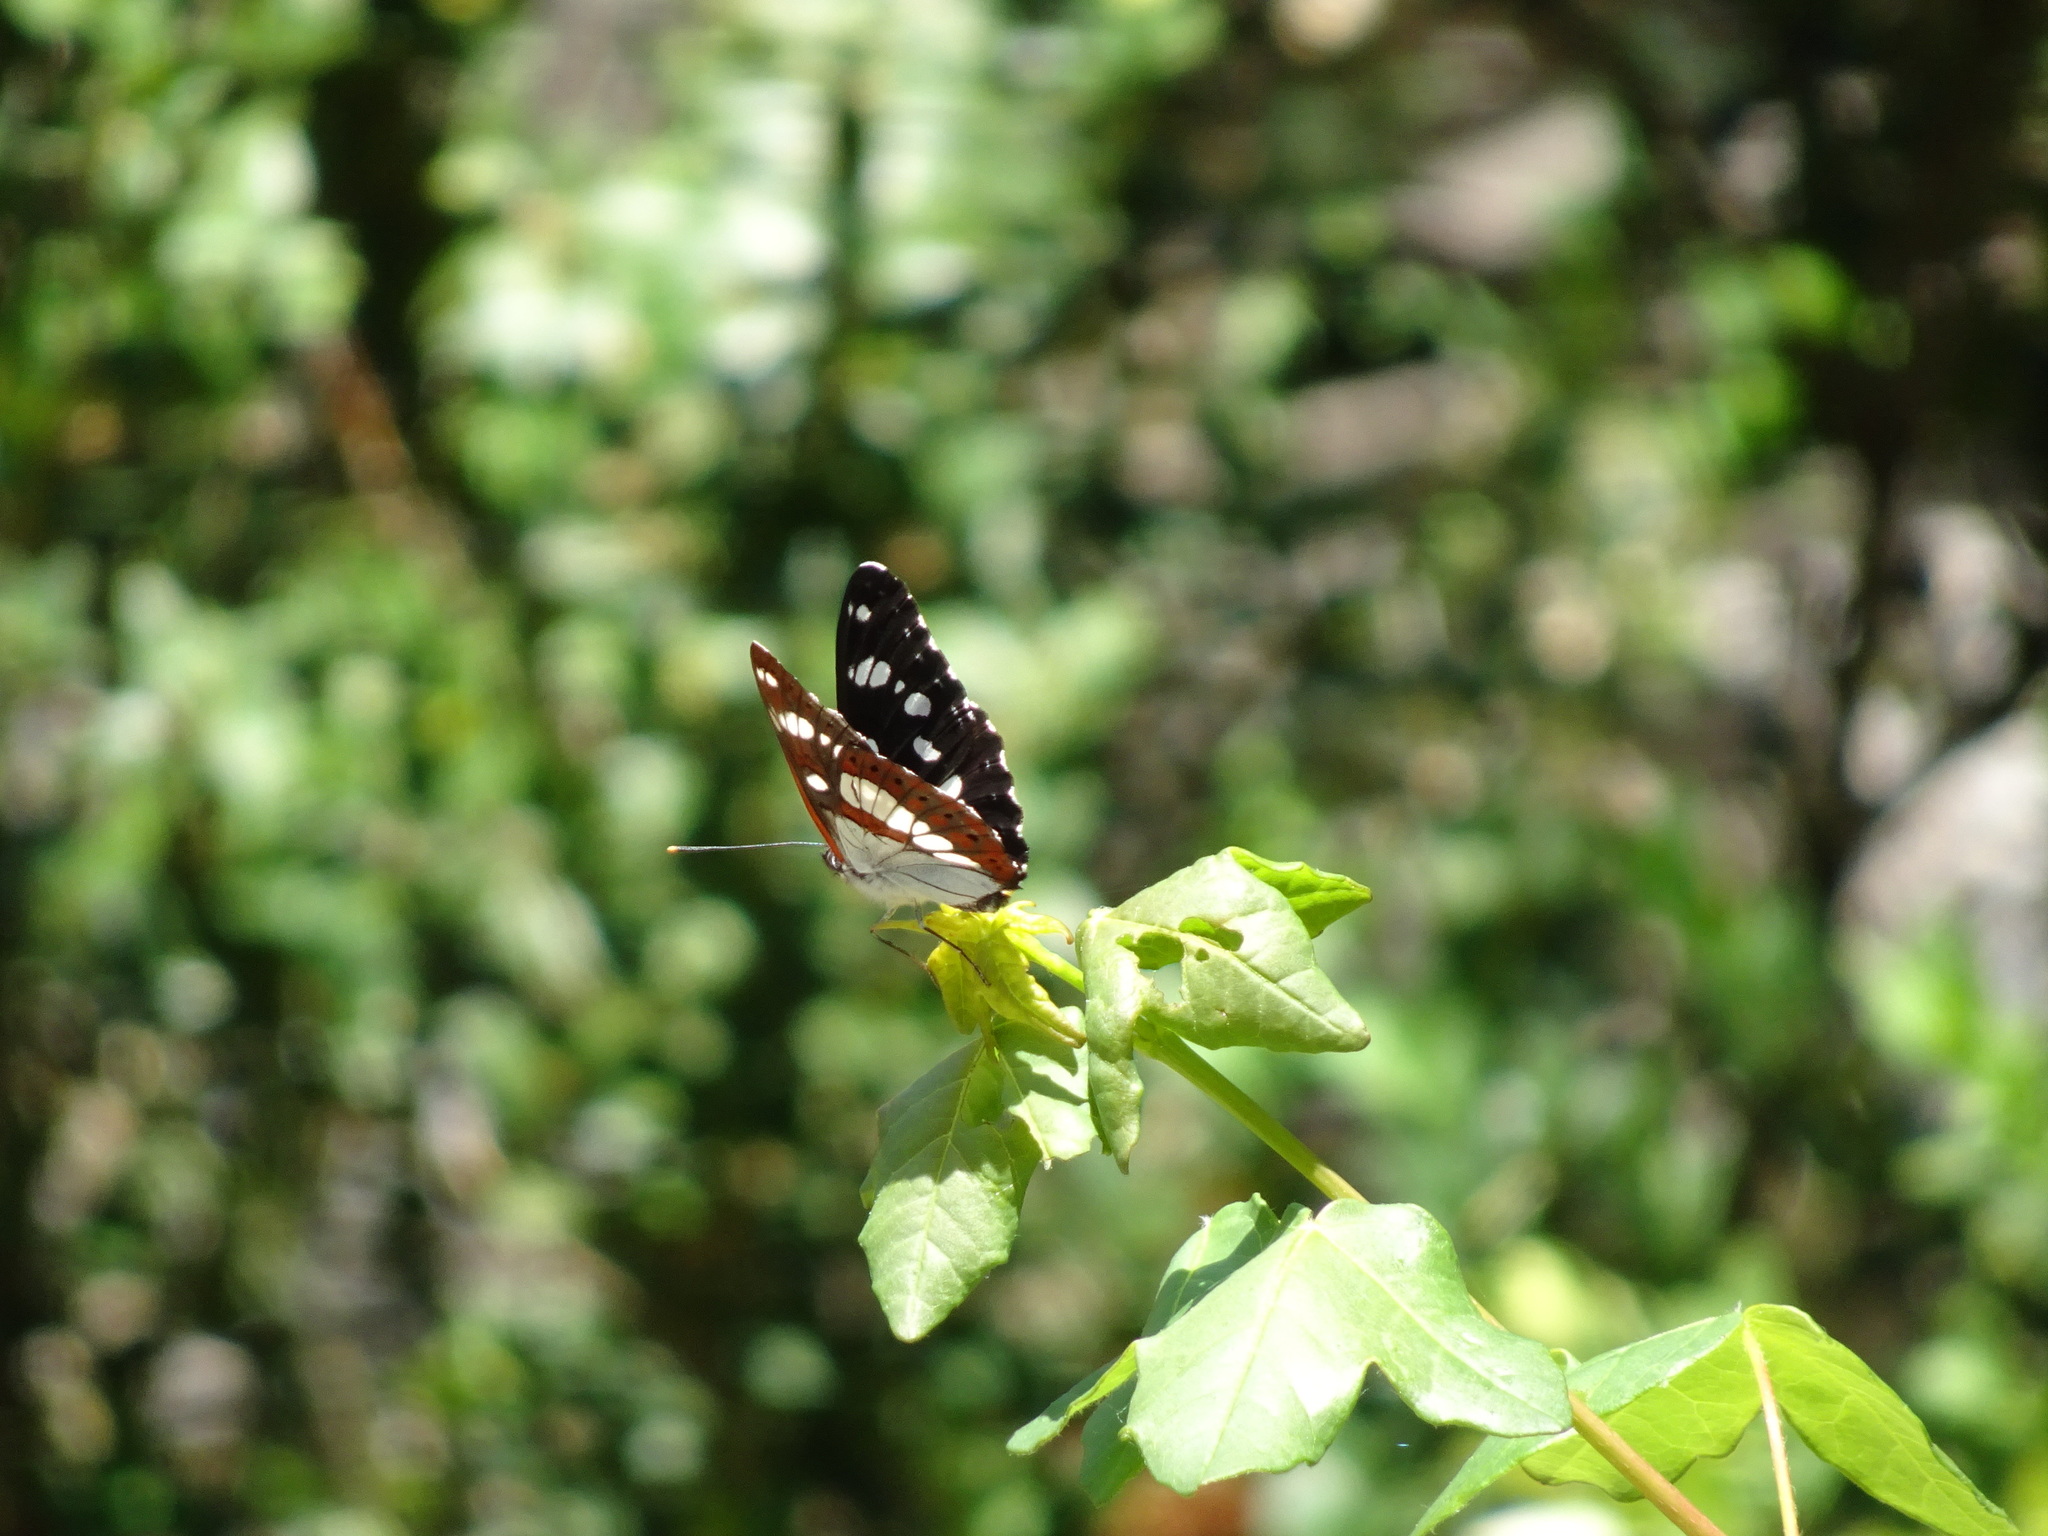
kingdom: Animalia
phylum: Arthropoda
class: Insecta
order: Lepidoptera
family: Nymphalidae
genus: Limenitis
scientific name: Limenitis reducta
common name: Southern white admiral
